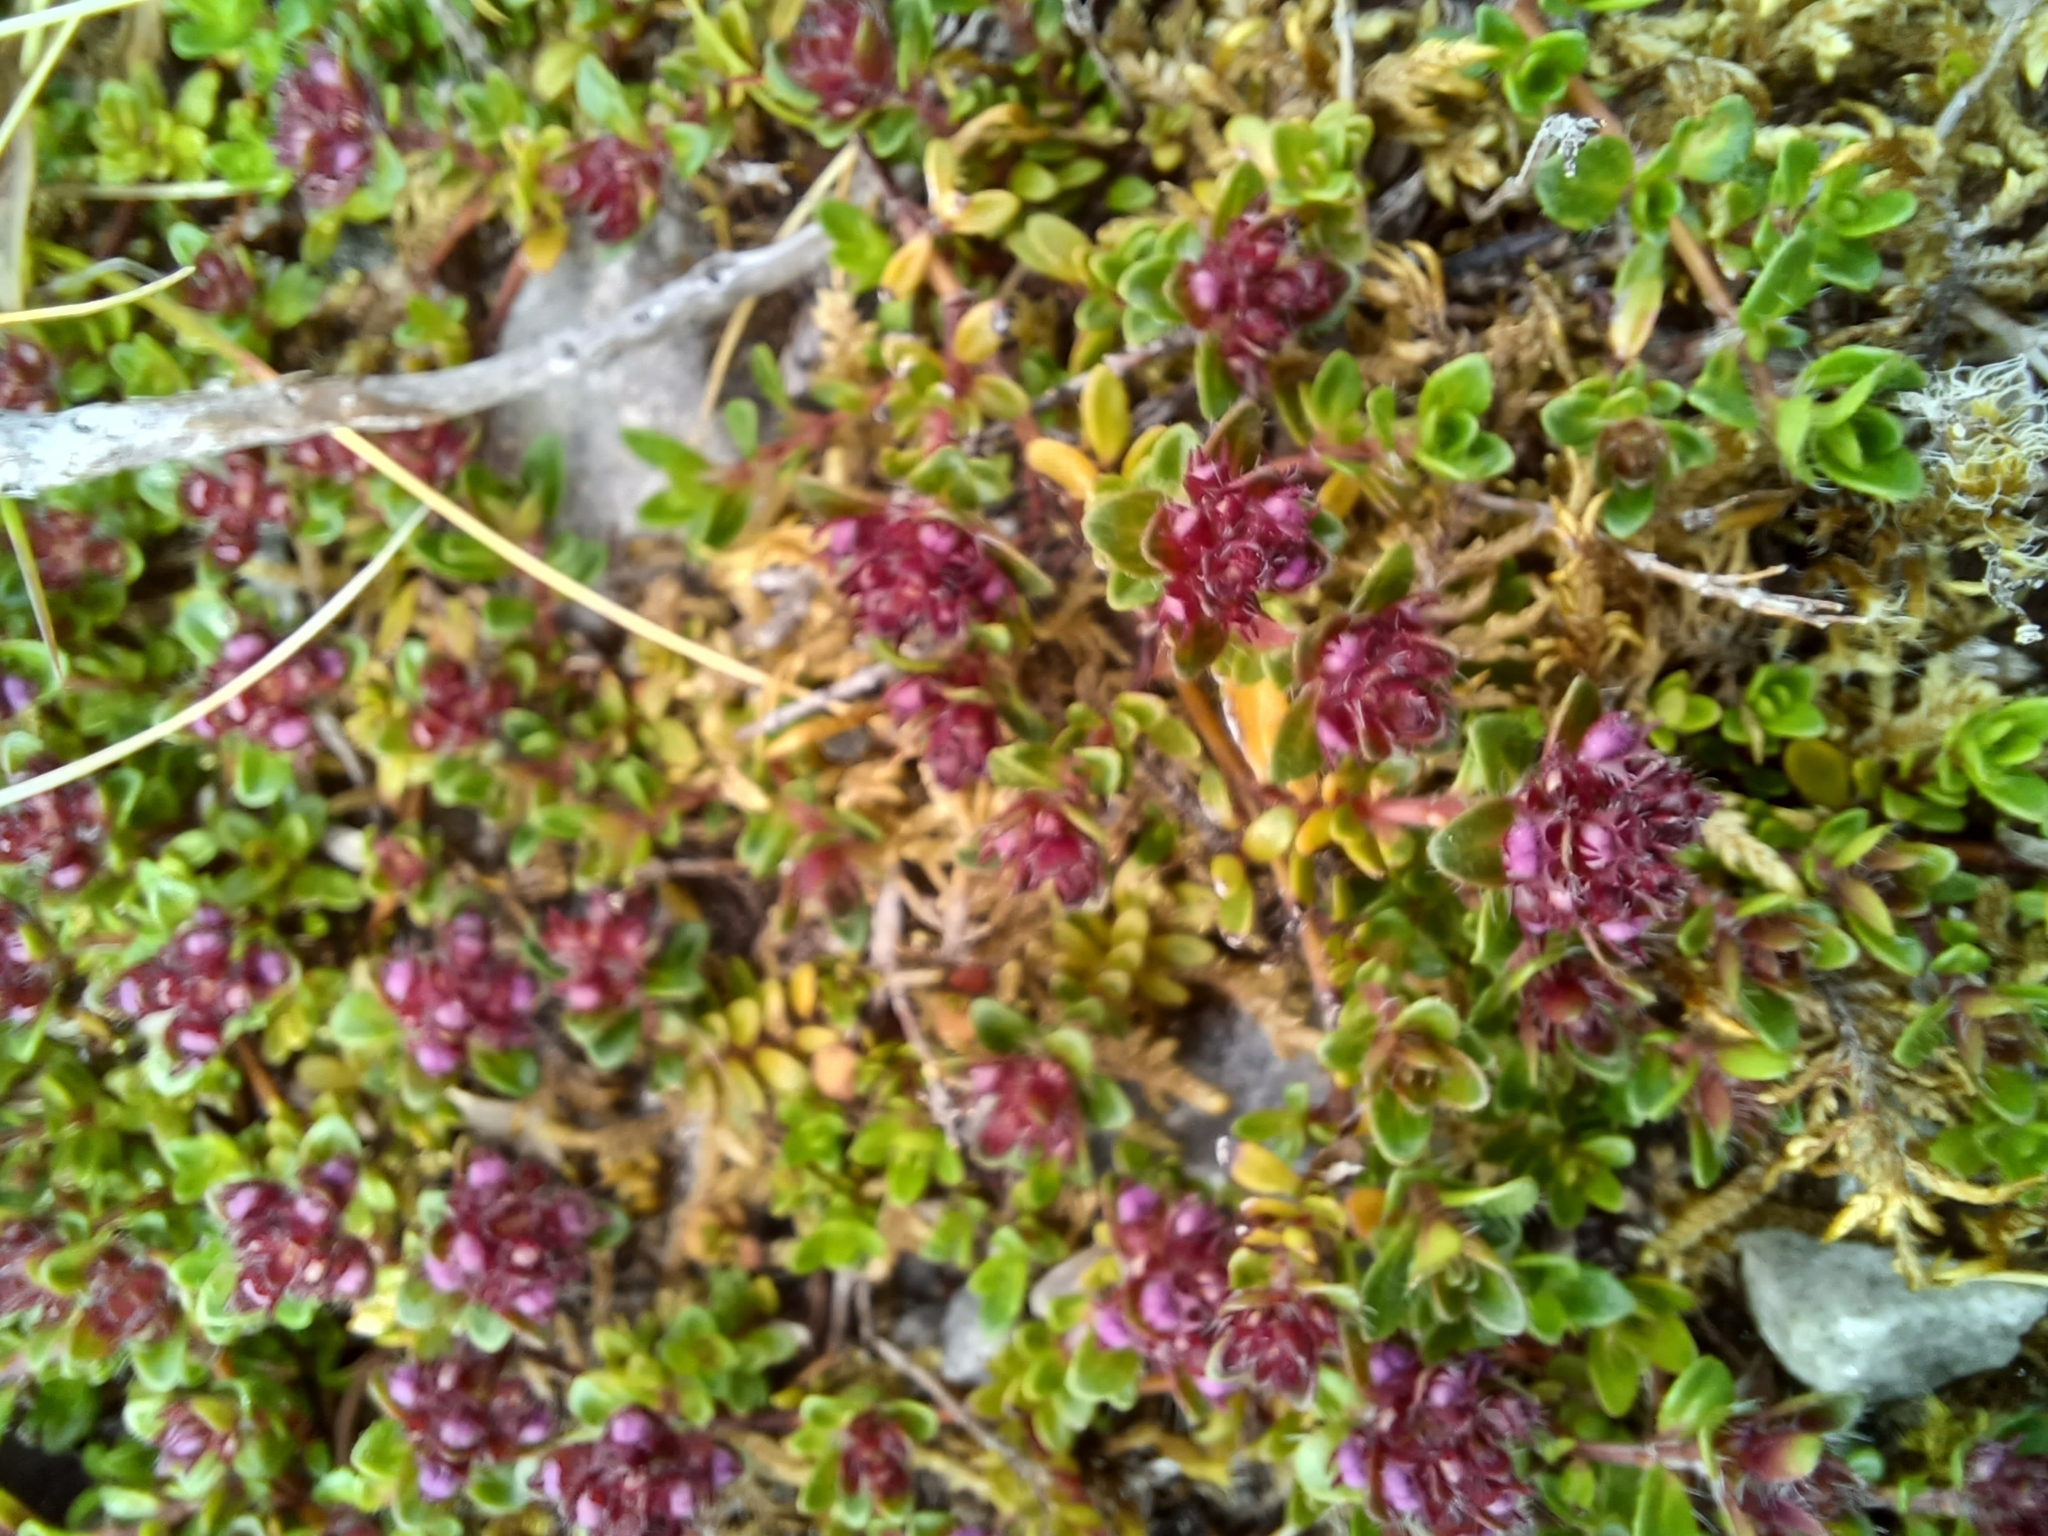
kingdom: Plantae
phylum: Tracheophyta
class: Magnoliopsida
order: Lamiales
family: Lamiaceae
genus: Thymus
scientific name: Thymus praecox
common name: Wild thyme
